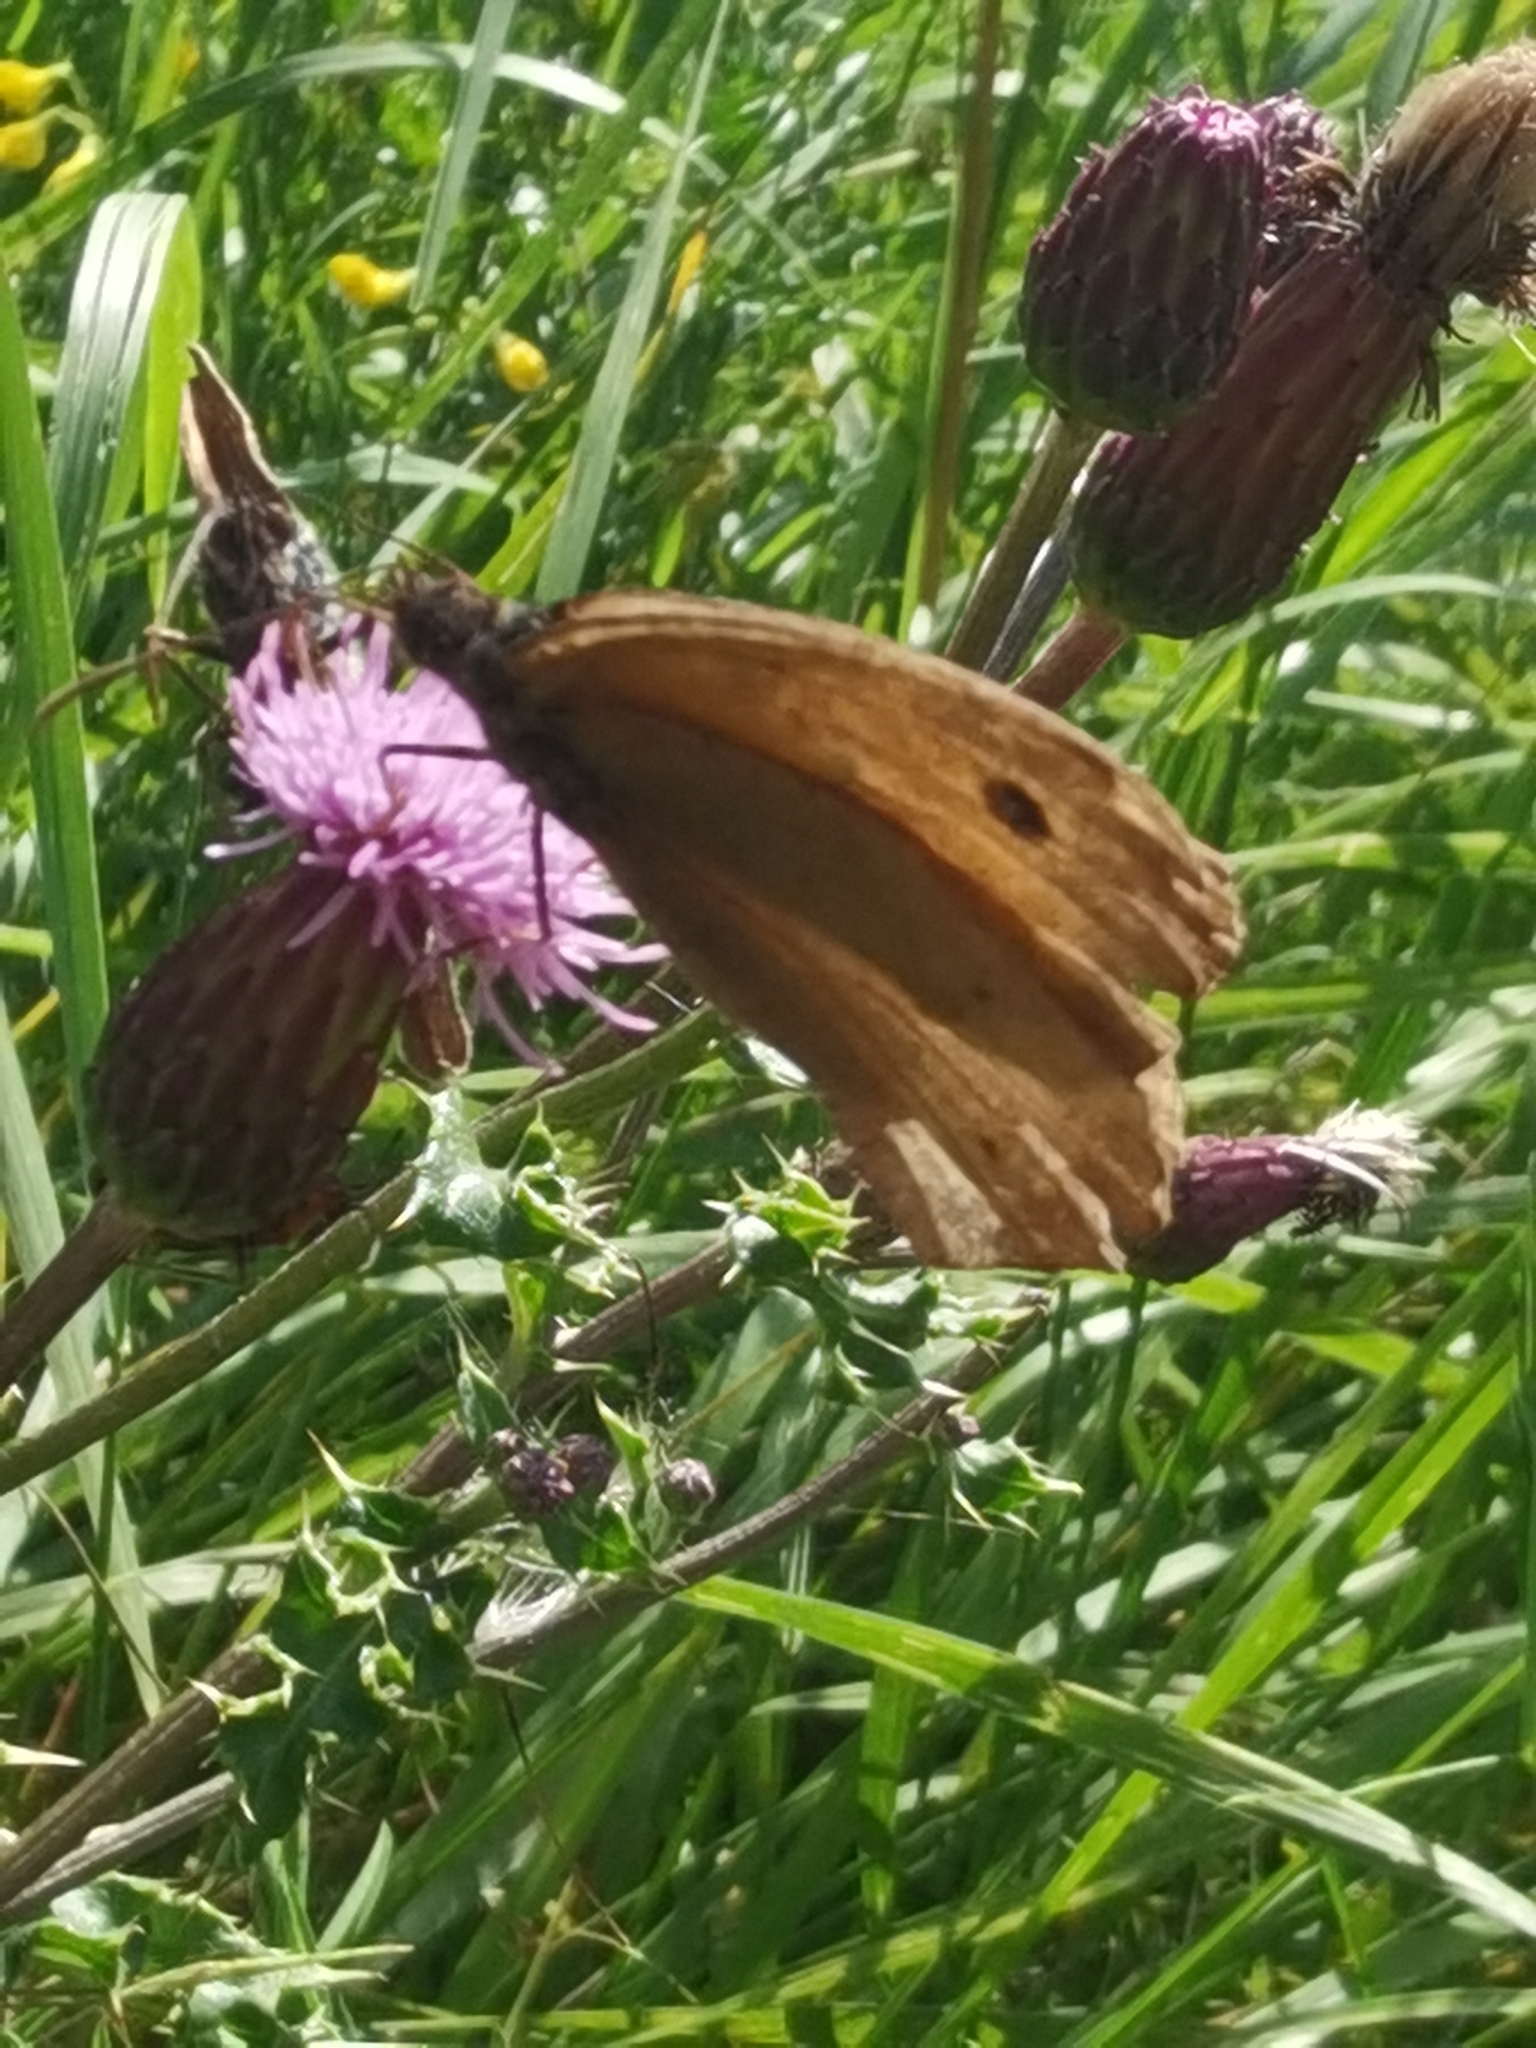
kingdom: Animalia
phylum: Arthropoda
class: Insecta
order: Lepidoptera
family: Nymphalidae
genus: Maniola
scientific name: Maniola jurtina
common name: Meadow brown
